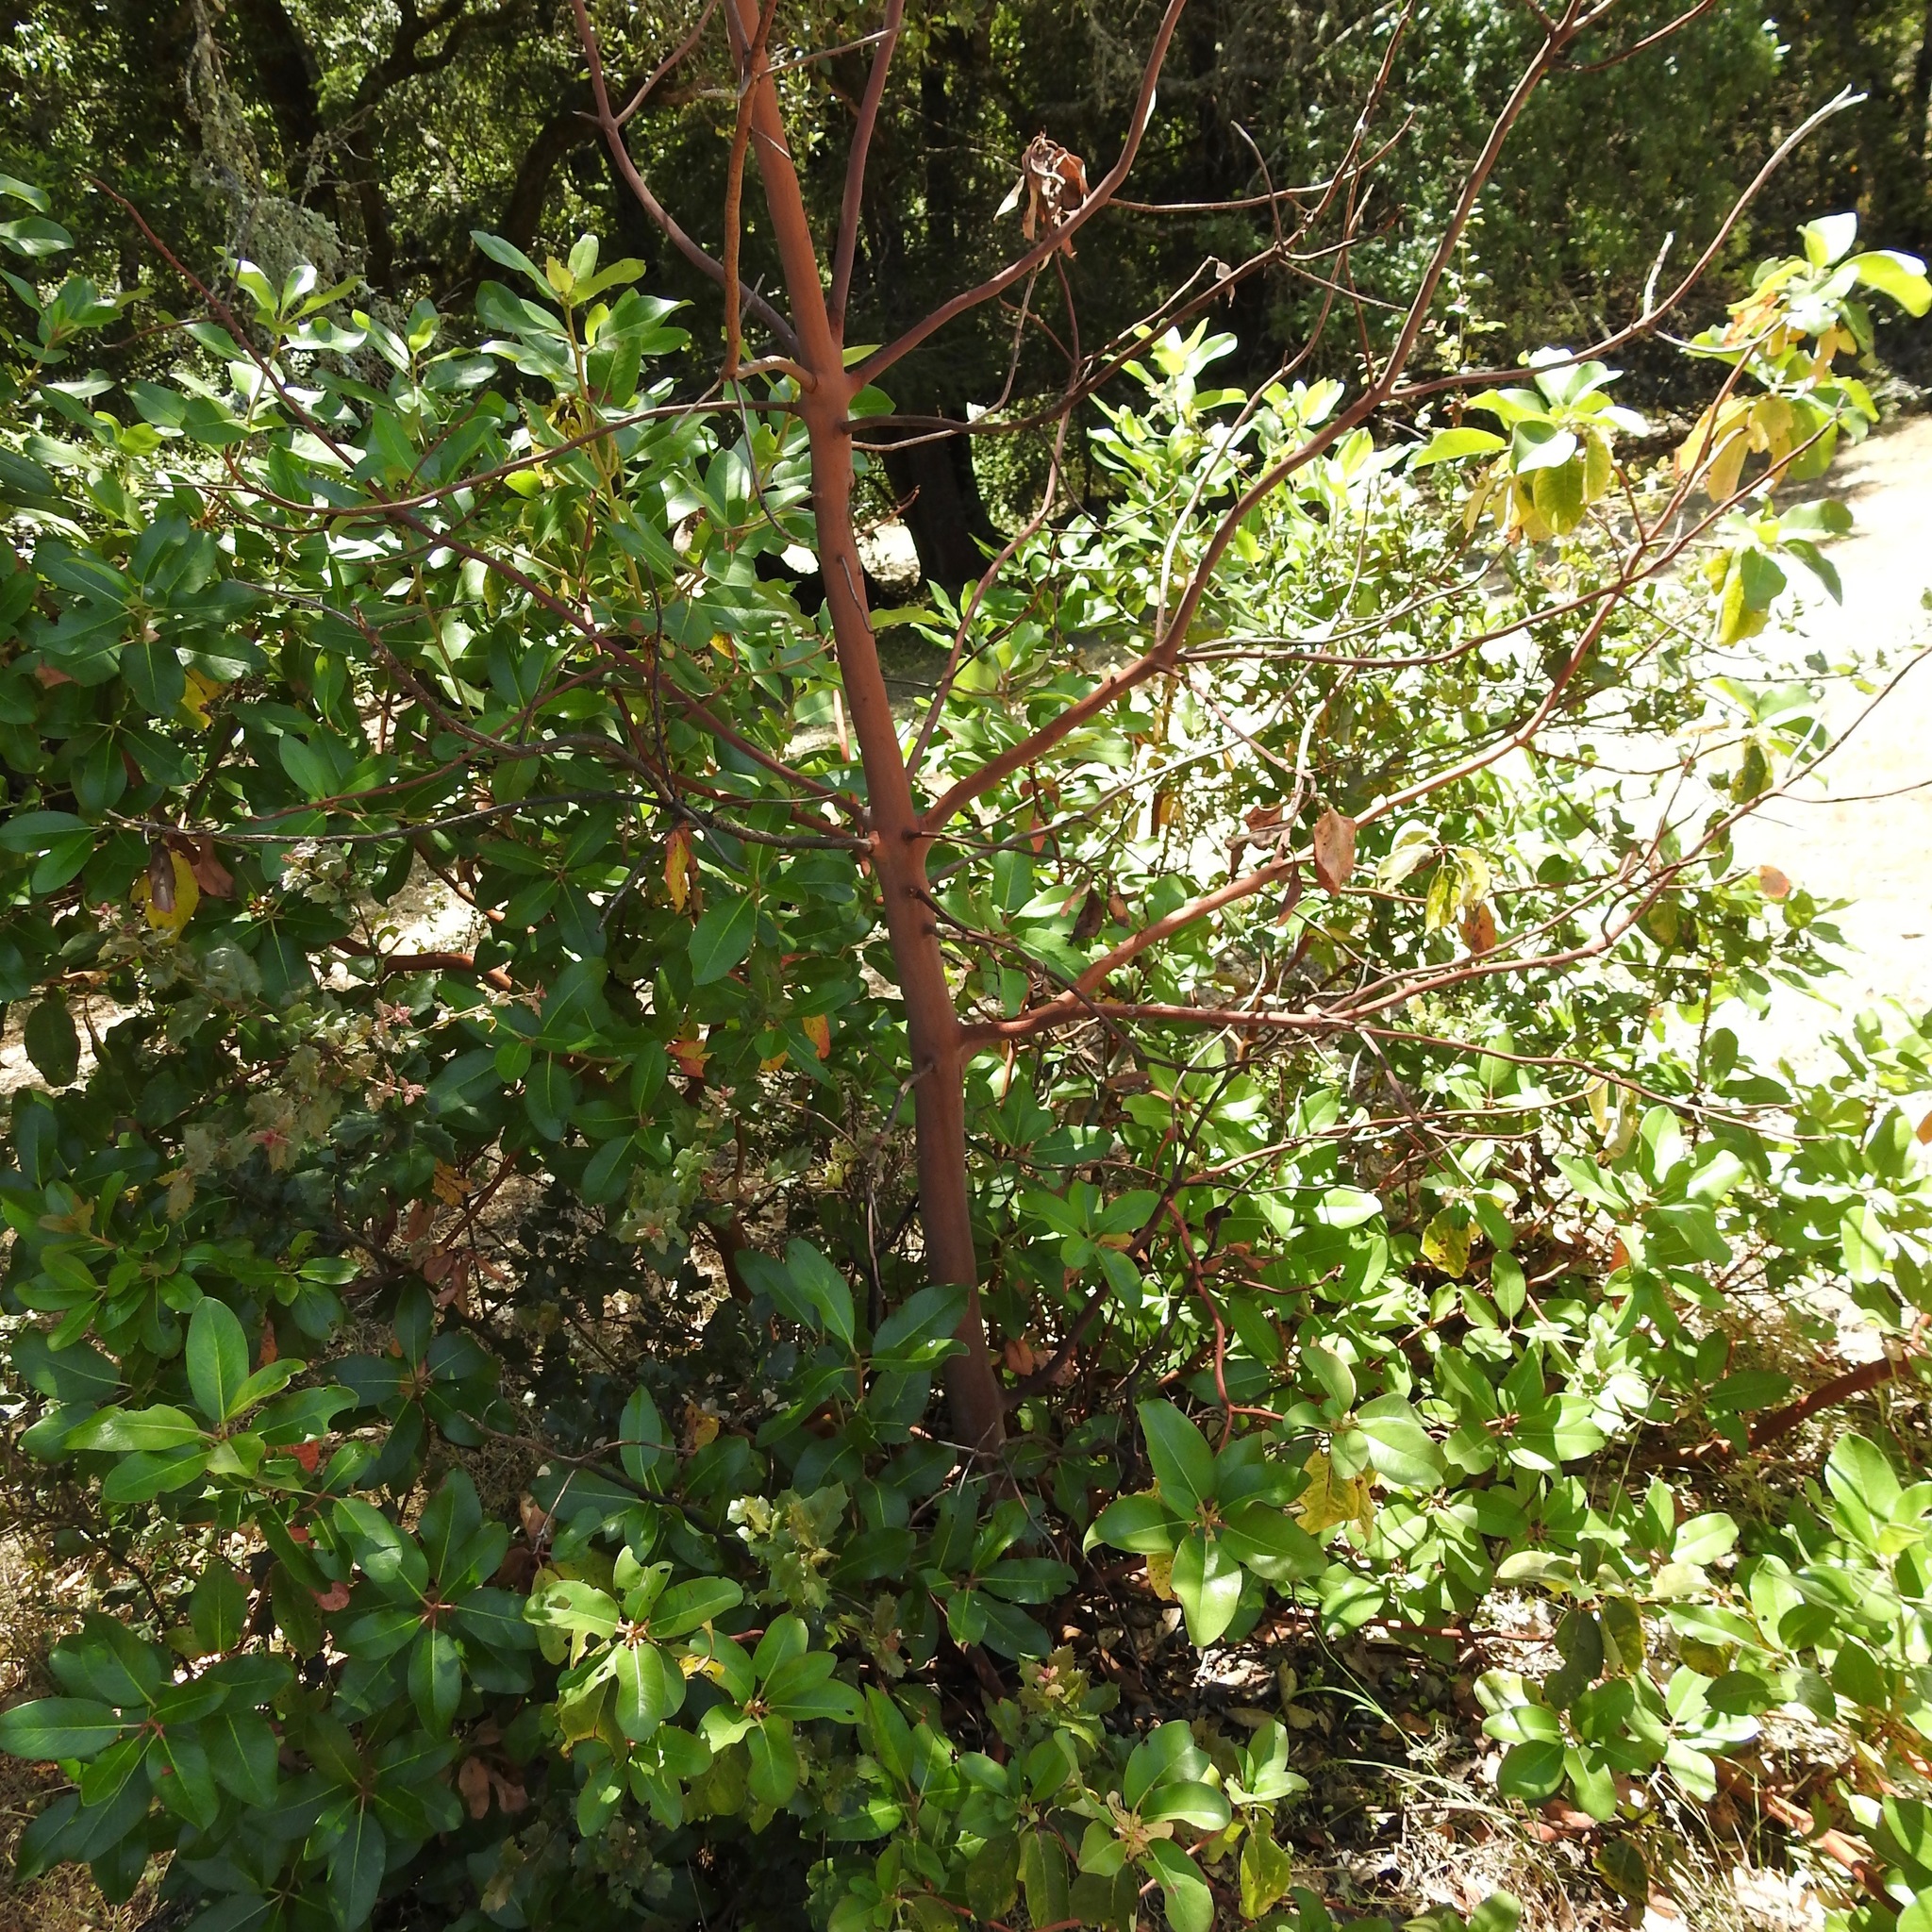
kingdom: Plantae
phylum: Tracheophyta
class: Magnoliopsida
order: Ericales
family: Ericaceae
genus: Arbutus
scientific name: Arbutus menziesii
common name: Pacific madrone
